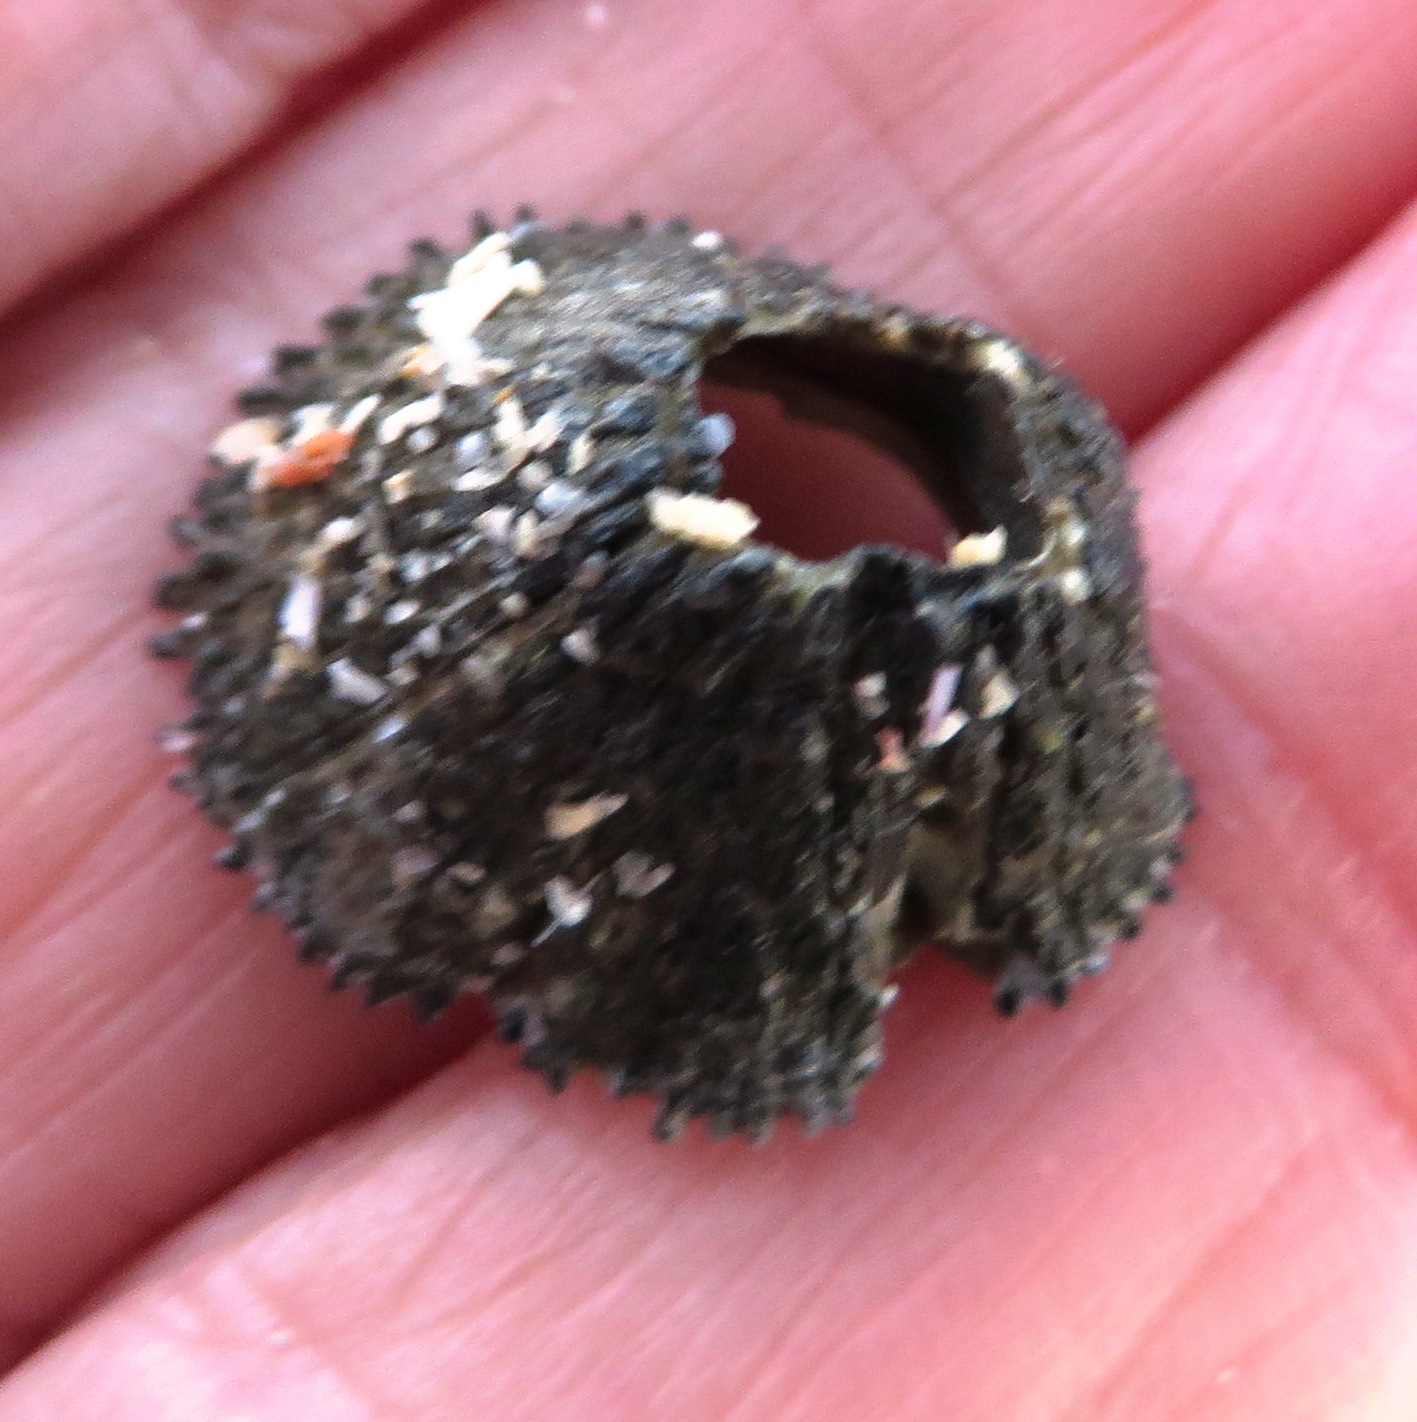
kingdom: Animalia
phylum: Arthropoda
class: Maxillopoda
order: Sessilia
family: Tetraclitidae
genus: Tetraclita
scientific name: Tetraclita serrata
